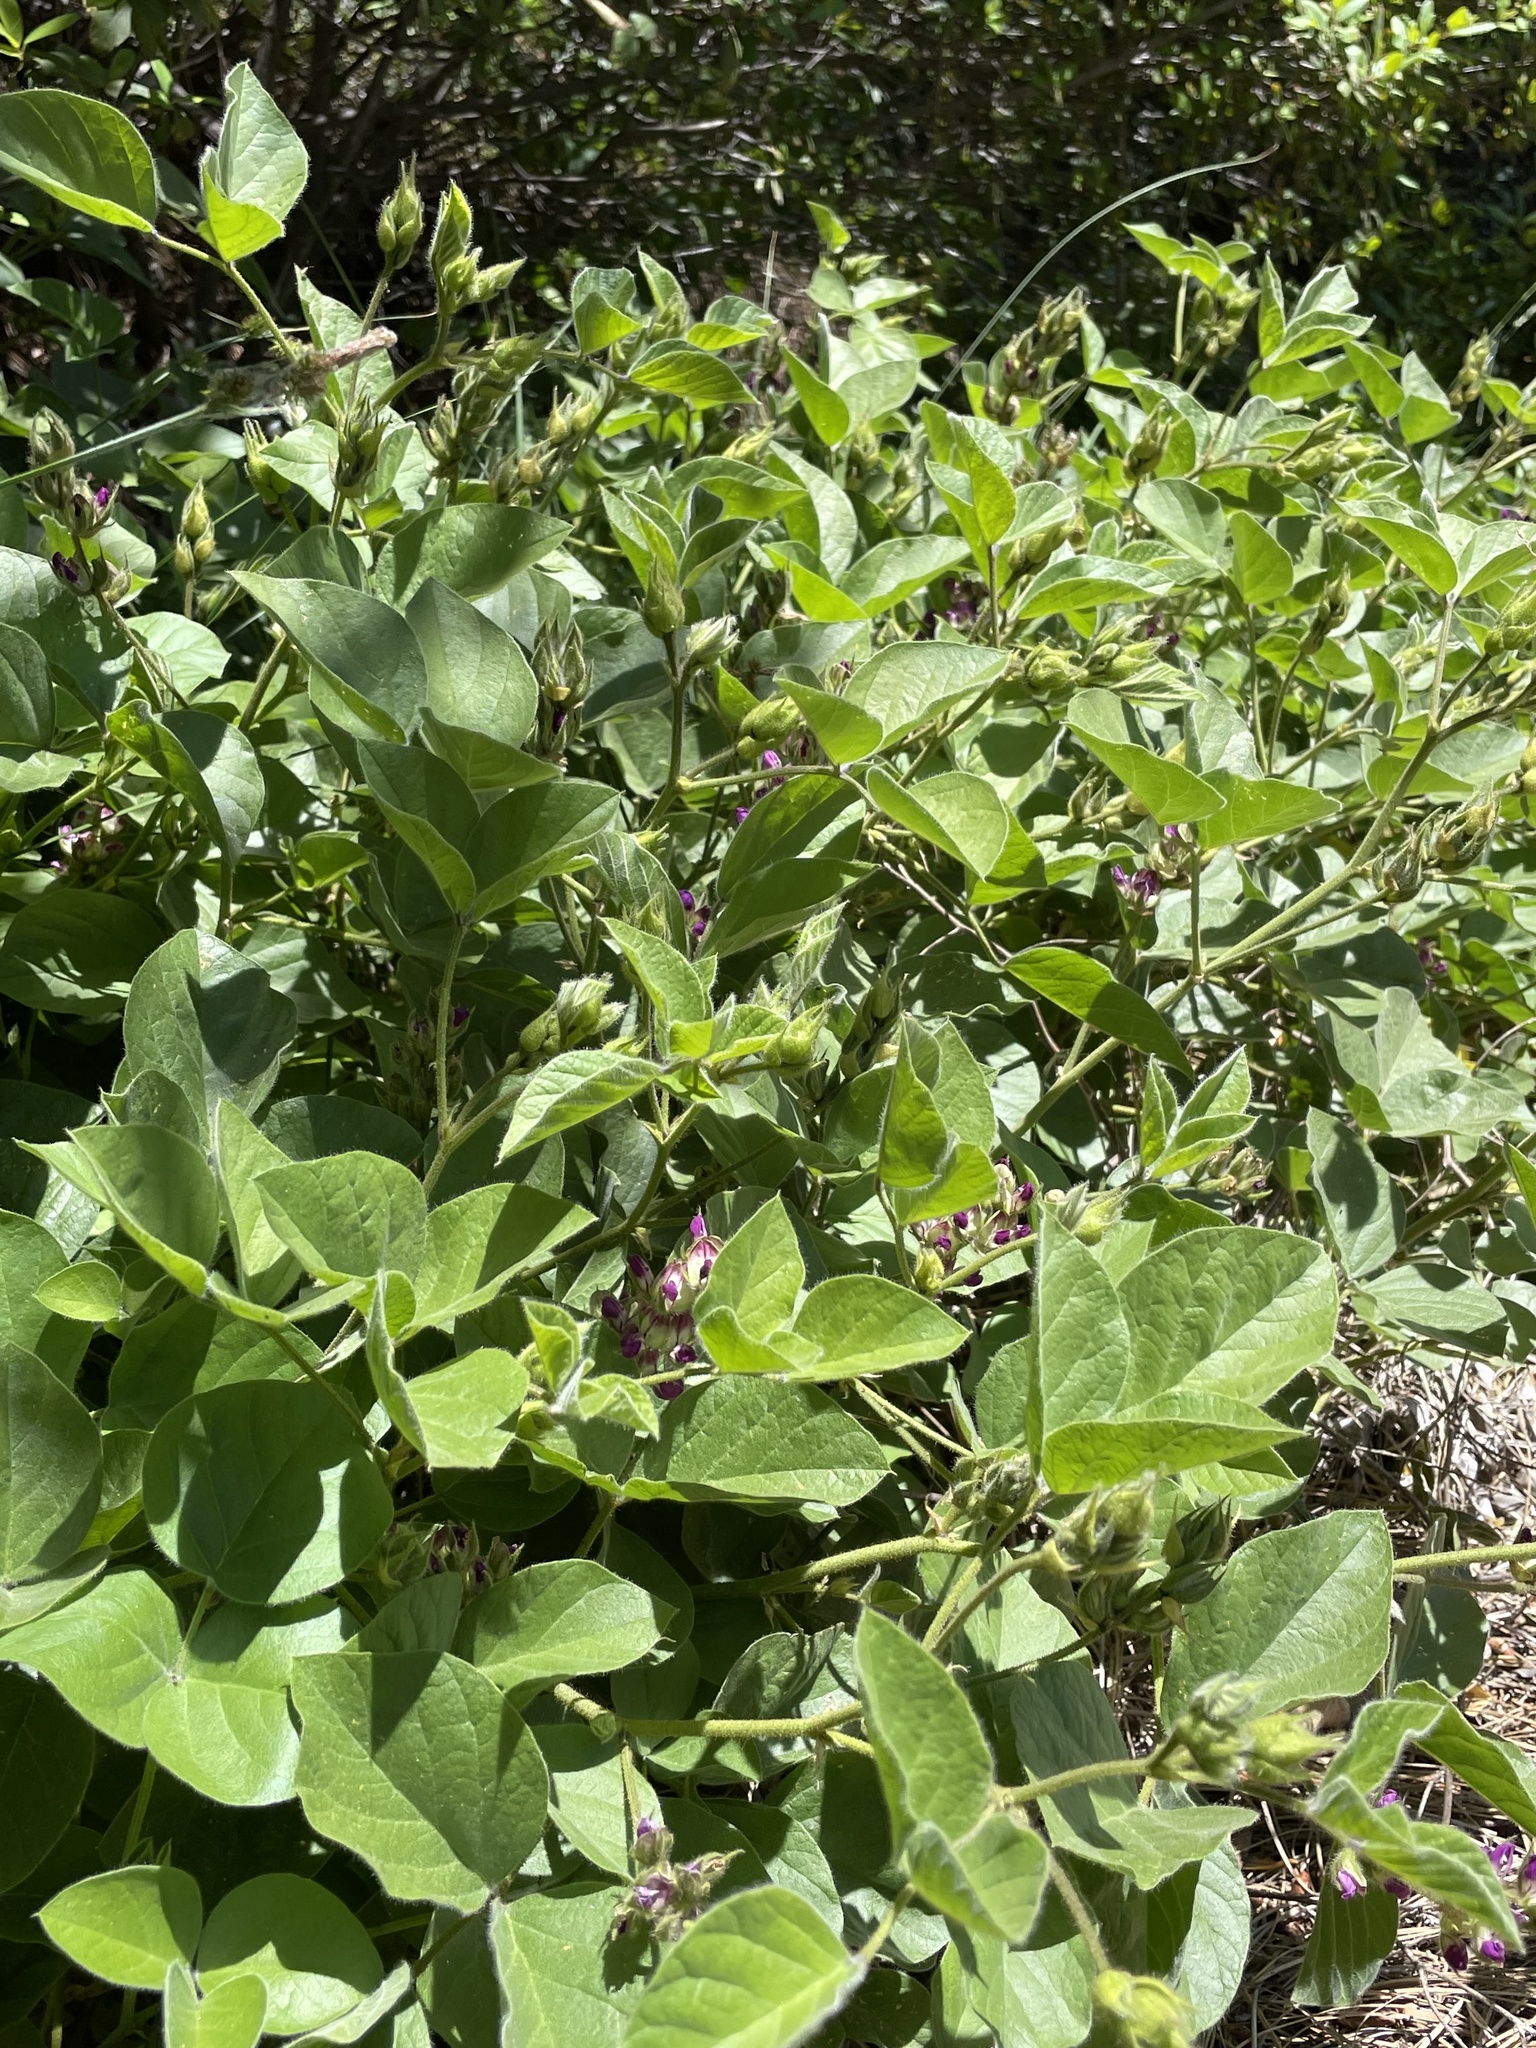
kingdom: Plantae
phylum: Tracheophyta
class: Magnoliopsida
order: Fabales
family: Fabaceae
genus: Hoita
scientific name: Hoita strobilina
